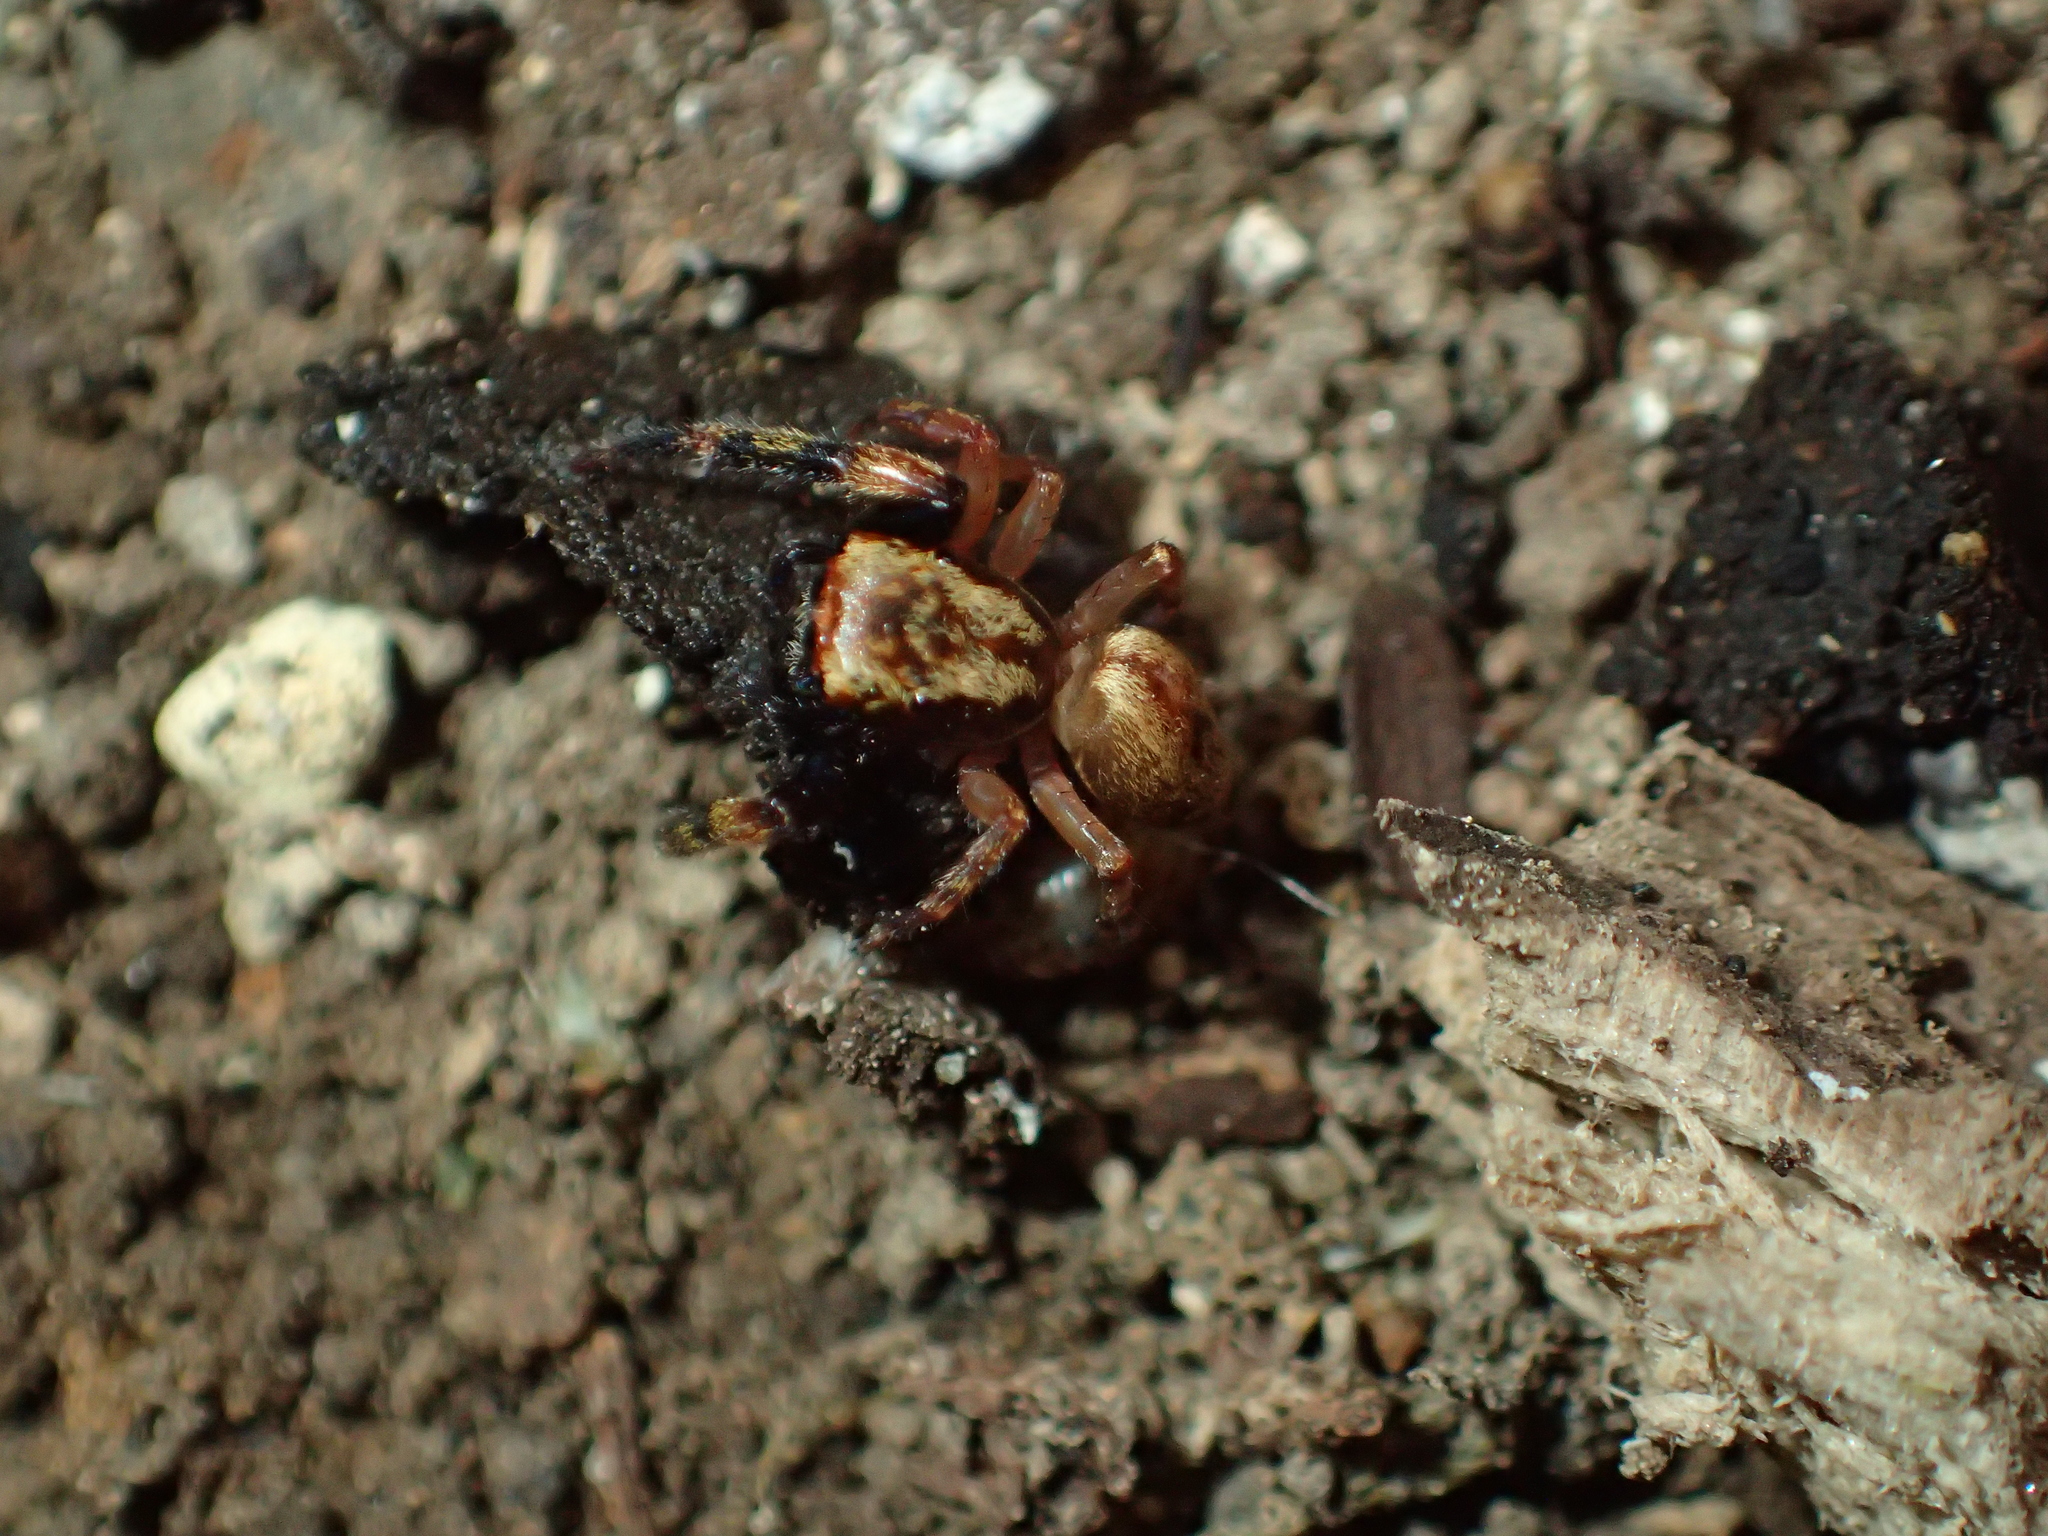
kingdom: Animalia
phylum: Arthropoda
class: Arachnida
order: Araneae
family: Salticidae
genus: Trite
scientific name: Trite auricoma
